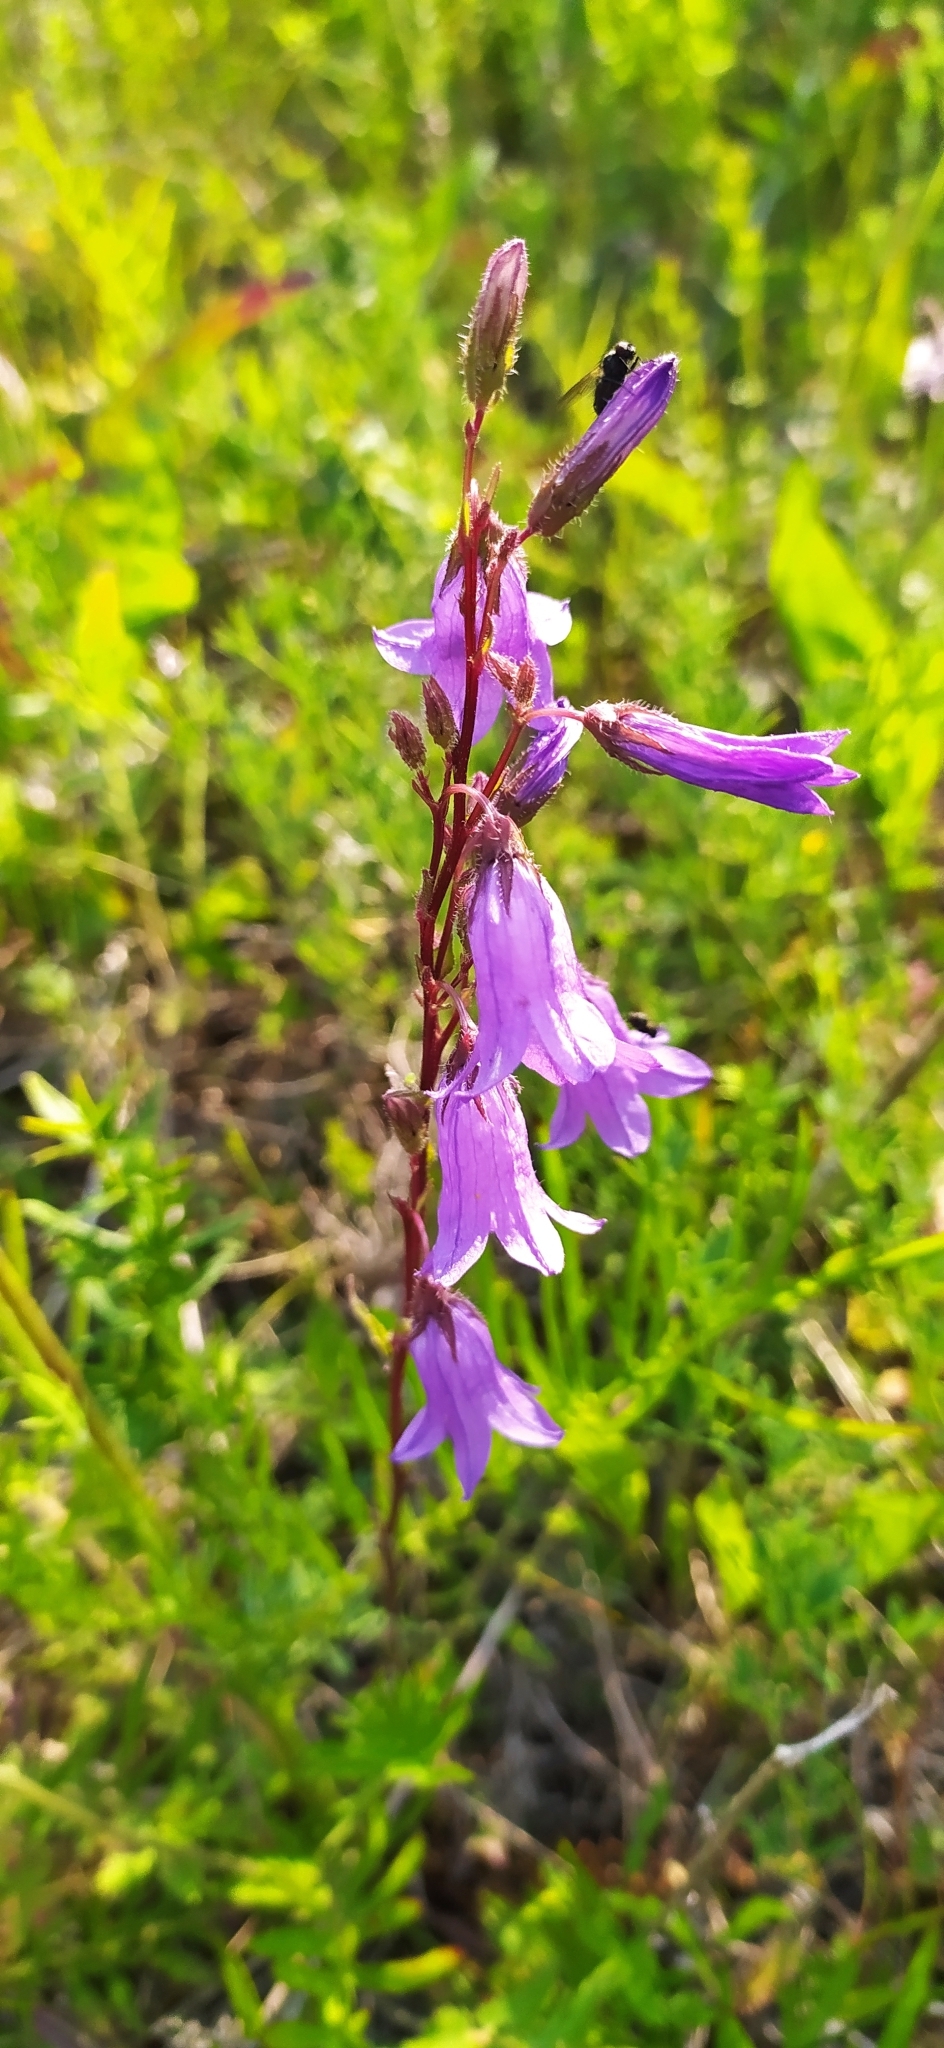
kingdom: Plantae
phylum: Tracheophyta
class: Magnoliopsida
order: Asterales
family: Campanulaceae
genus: Campanula
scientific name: Campanula sibirica
